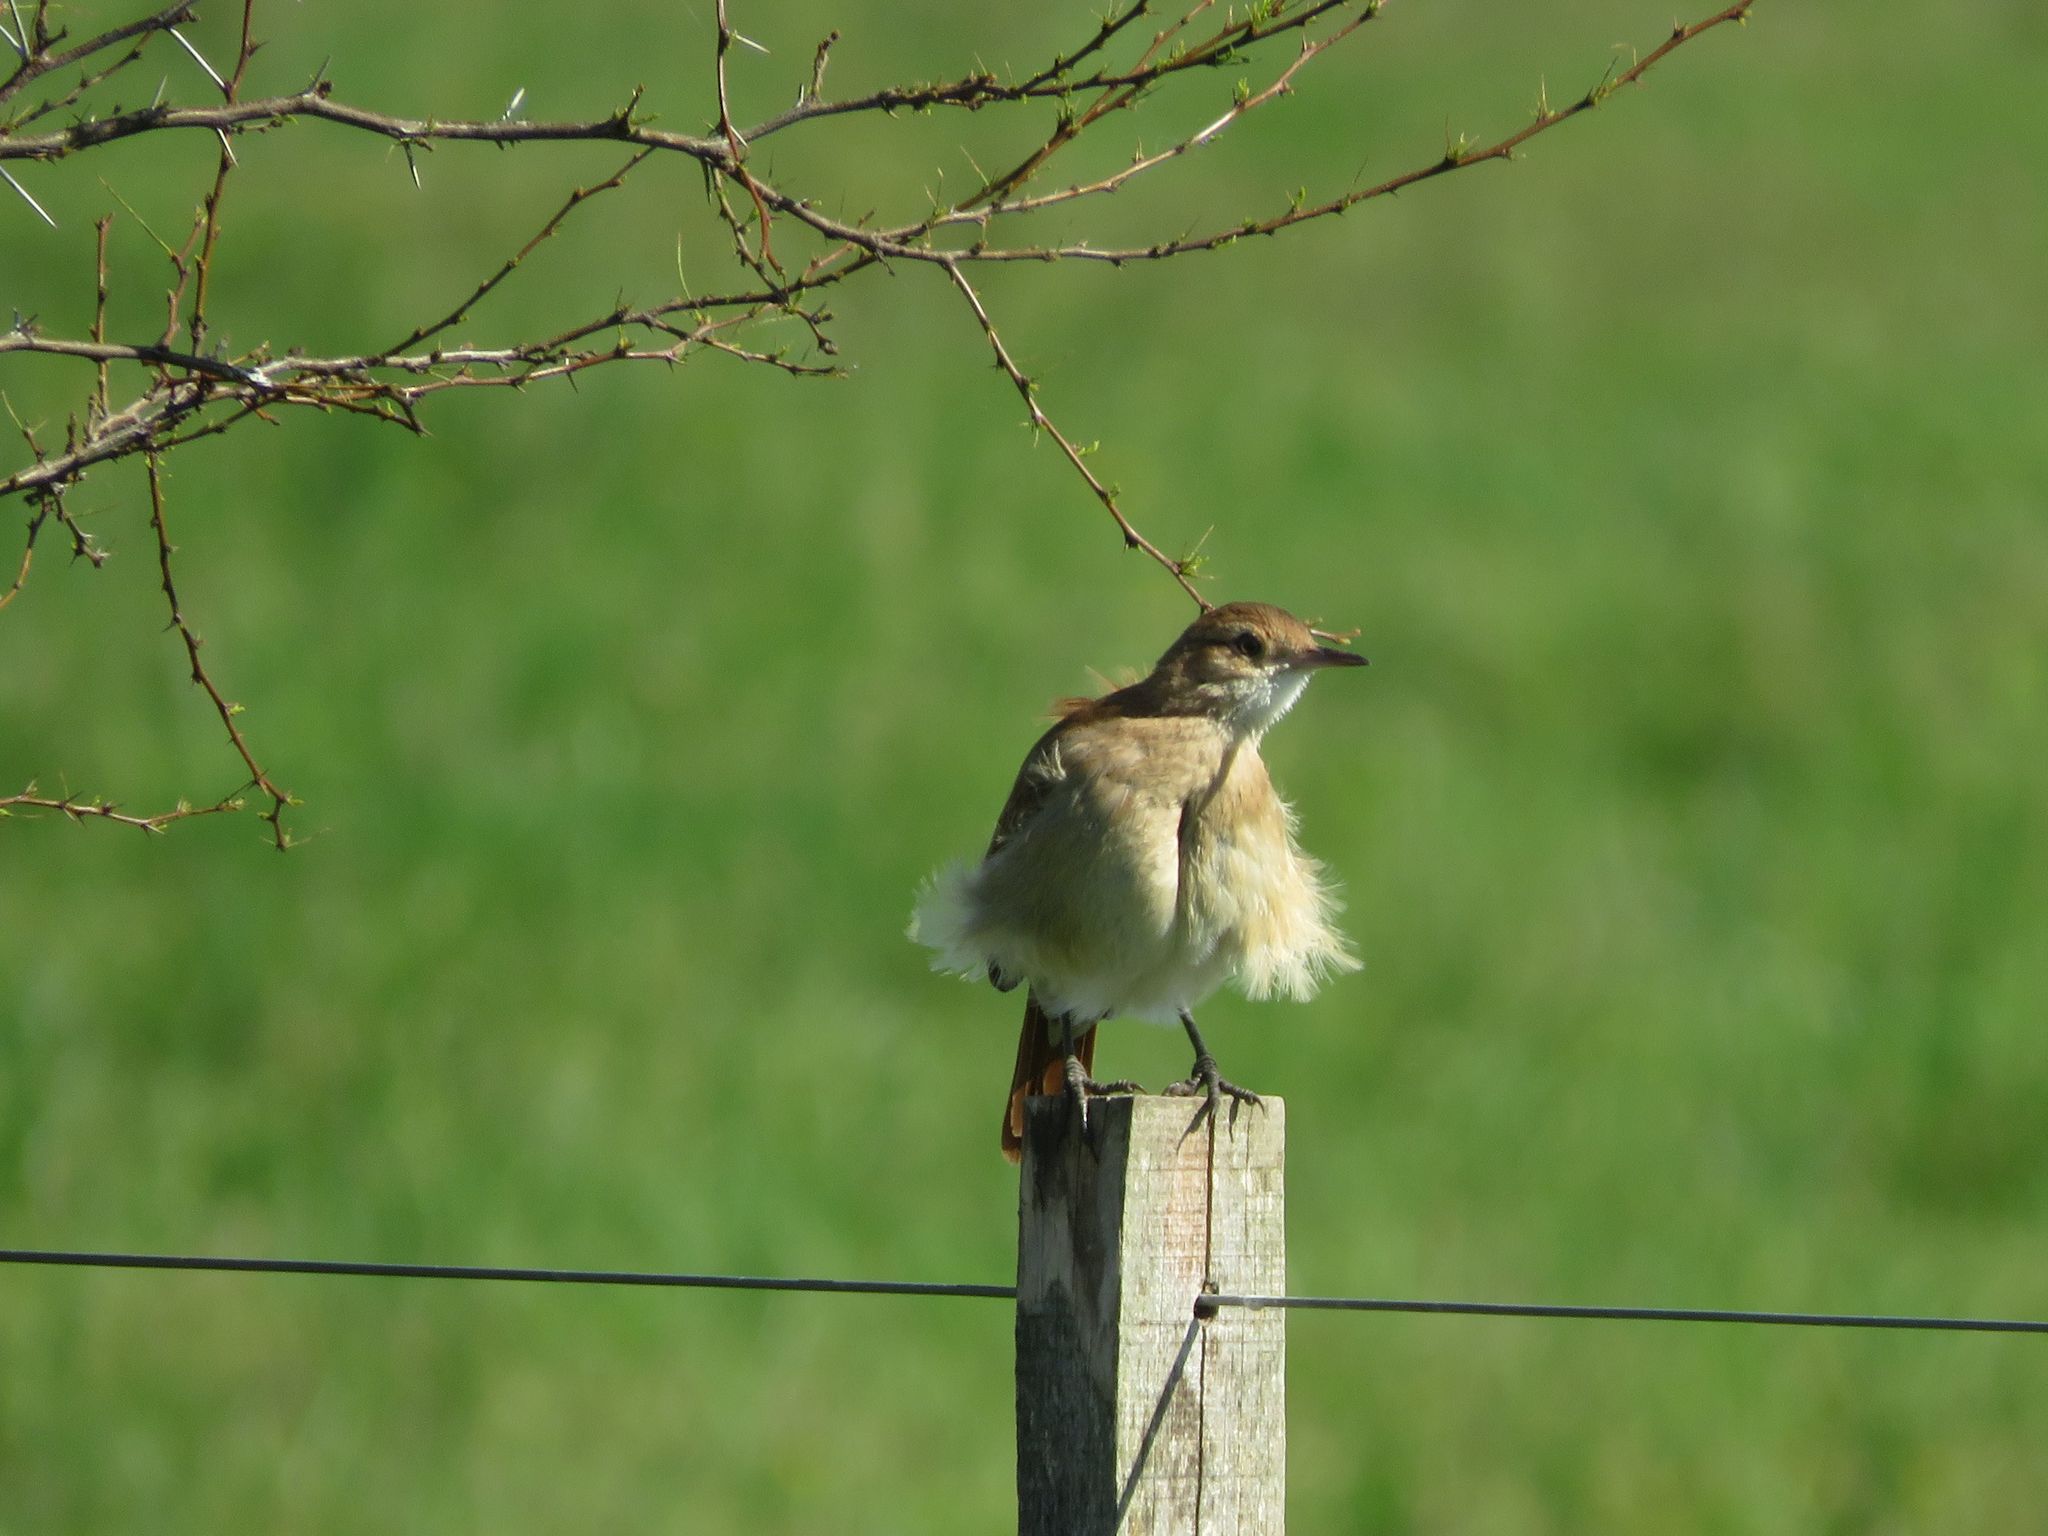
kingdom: Animalia
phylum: Chordata
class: Aves
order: Passeriformes
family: Furnariidae
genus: Furnarius
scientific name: Furnarius rufus
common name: Rufous hornero
